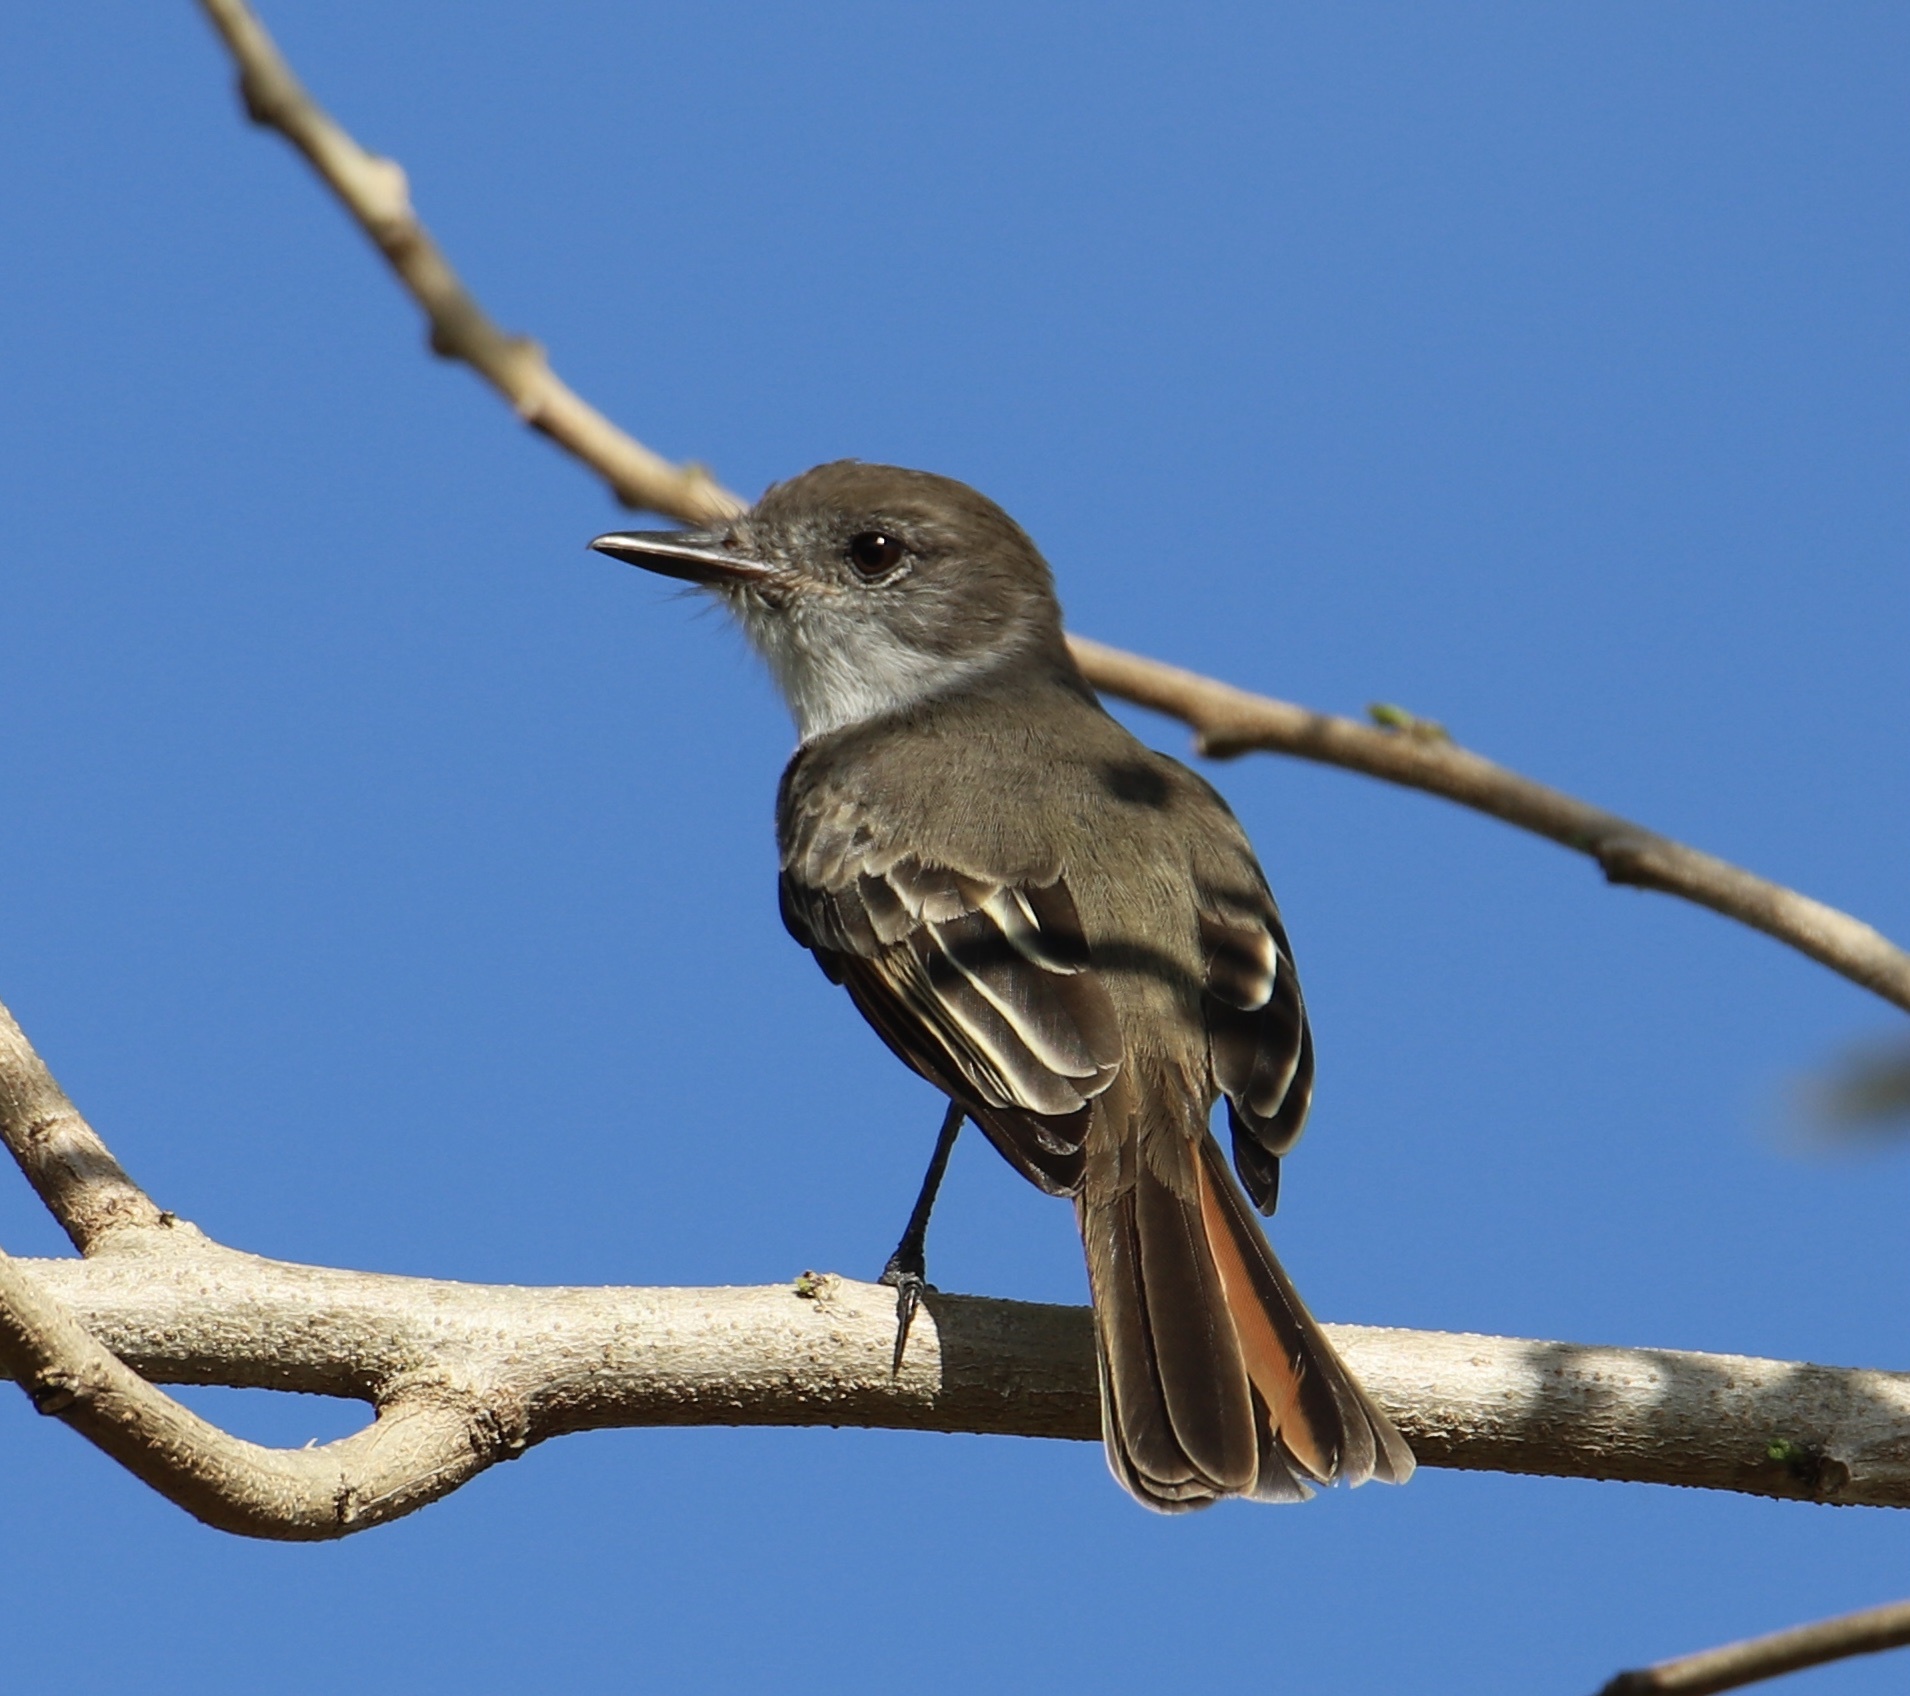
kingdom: Animalia
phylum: Chordata
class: Aves
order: Passeriformes
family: Tyrannidae
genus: Myiarchus
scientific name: Myiarchus stolidus
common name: Stolid flycatcher
